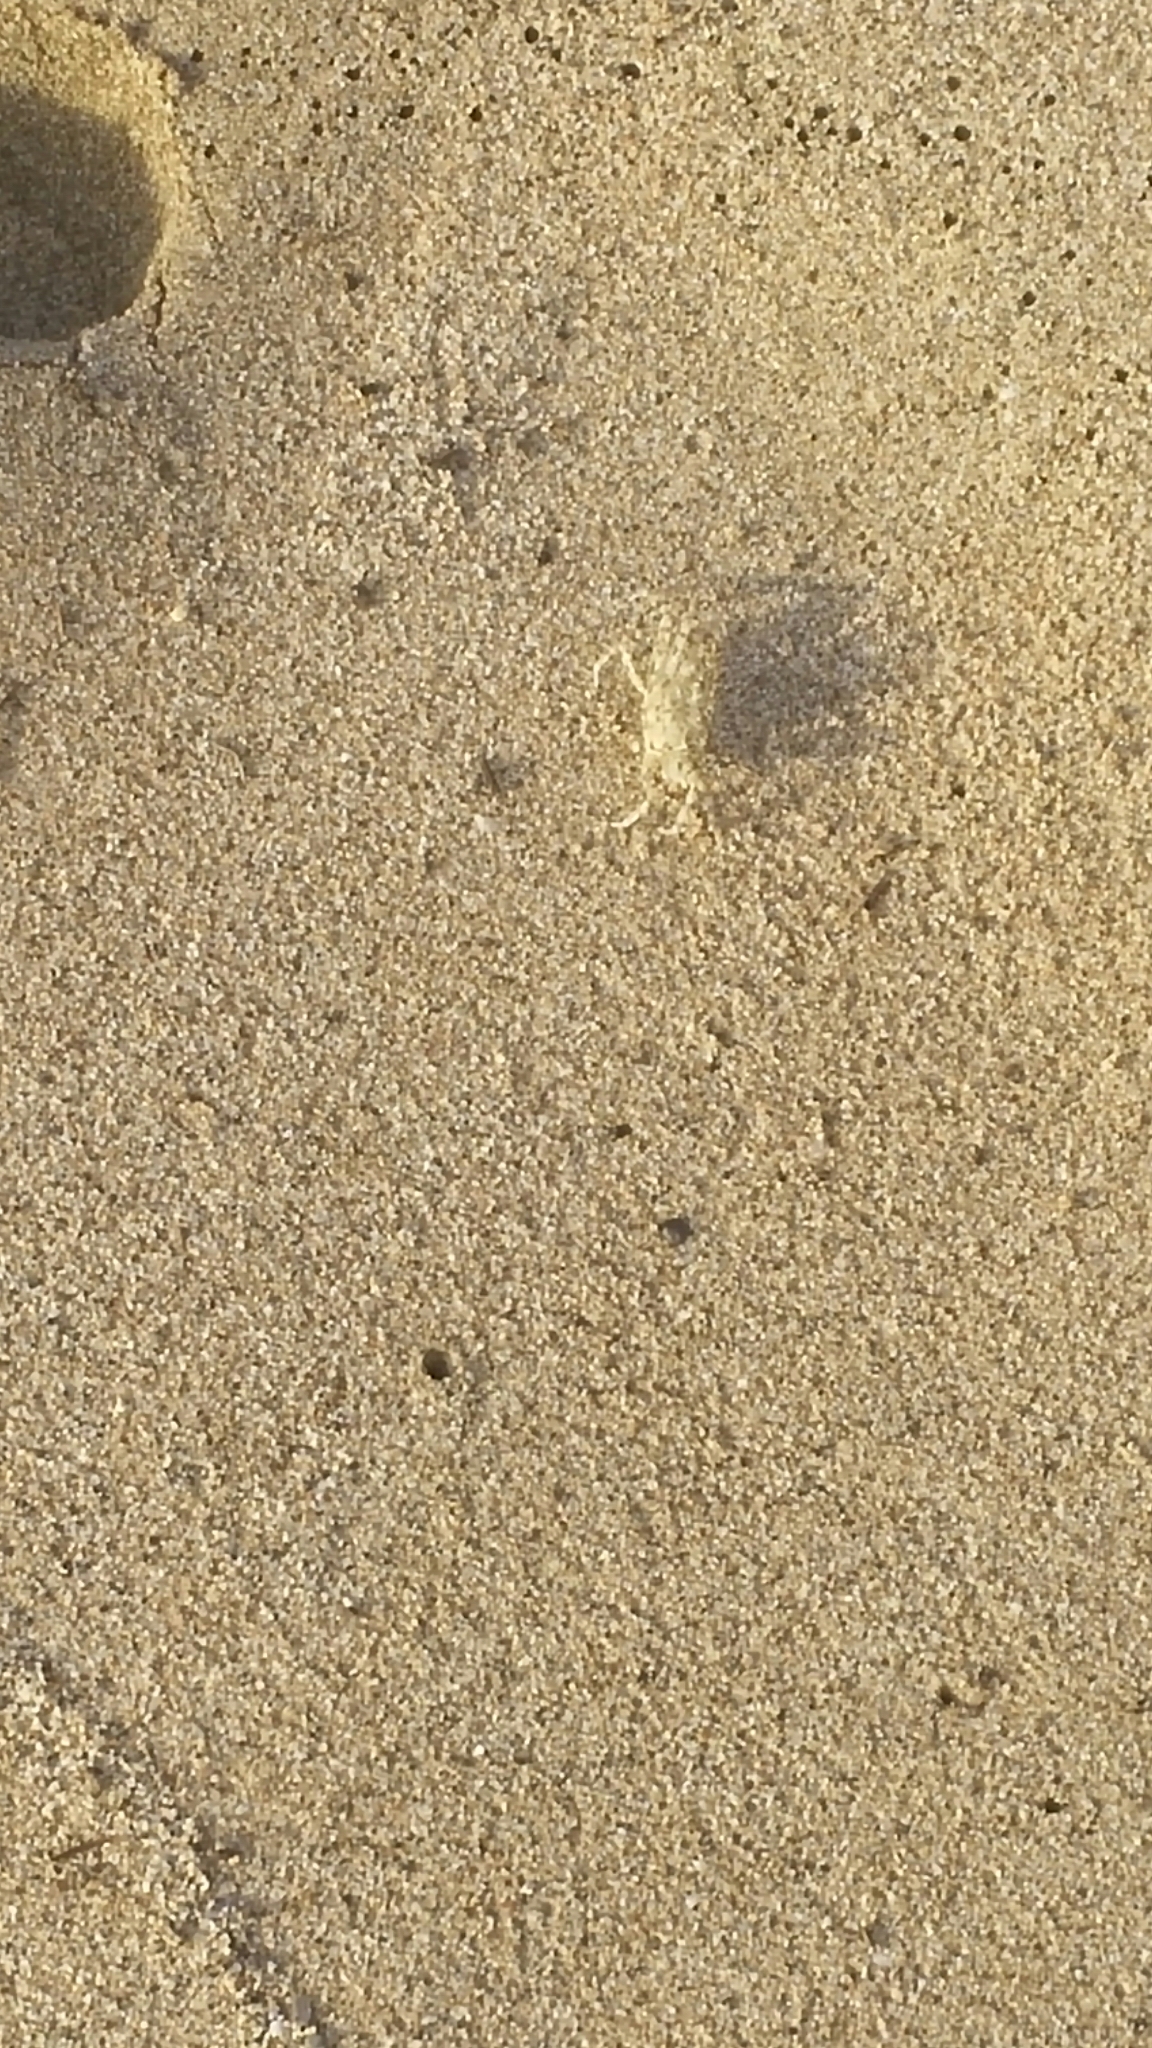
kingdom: Animalia
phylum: Arthropoda
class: Malacostraca
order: Decapoda
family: Ocypodidae
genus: Ocypode
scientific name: Ocypode pallidula
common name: Pallid ghost crab
